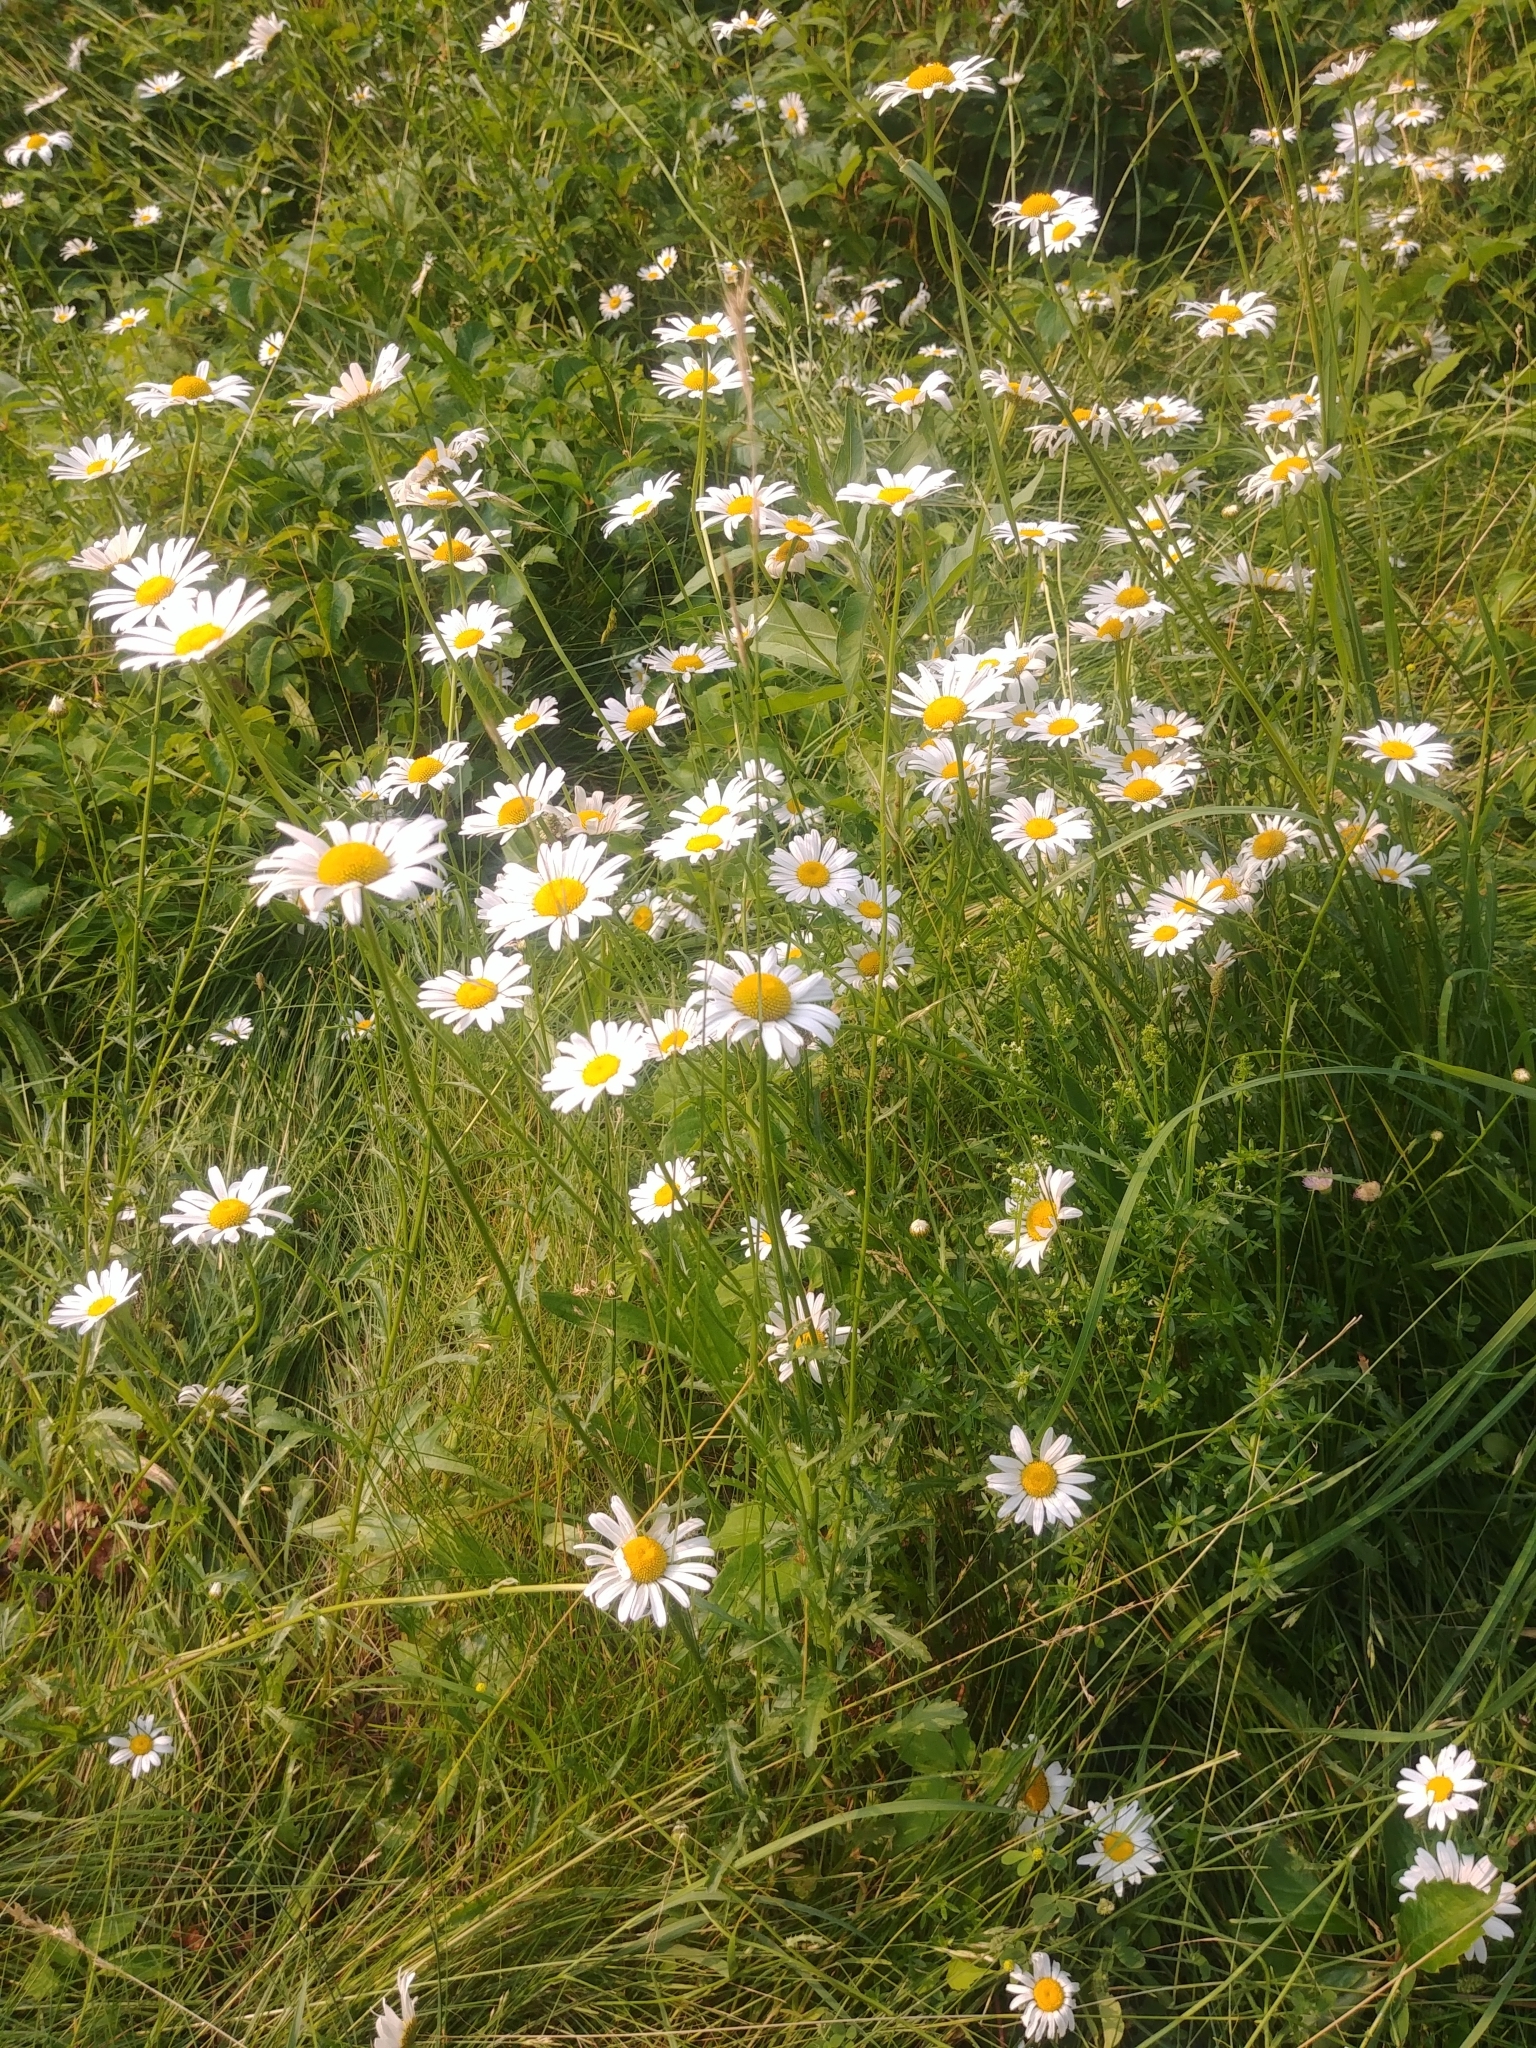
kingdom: Plantae
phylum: Tracheophyta
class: Magnoliopsida
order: Asterales
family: Asteraceae
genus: Leucanthemum
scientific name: Leucanthemum vulgare
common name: Oxeye daisy
